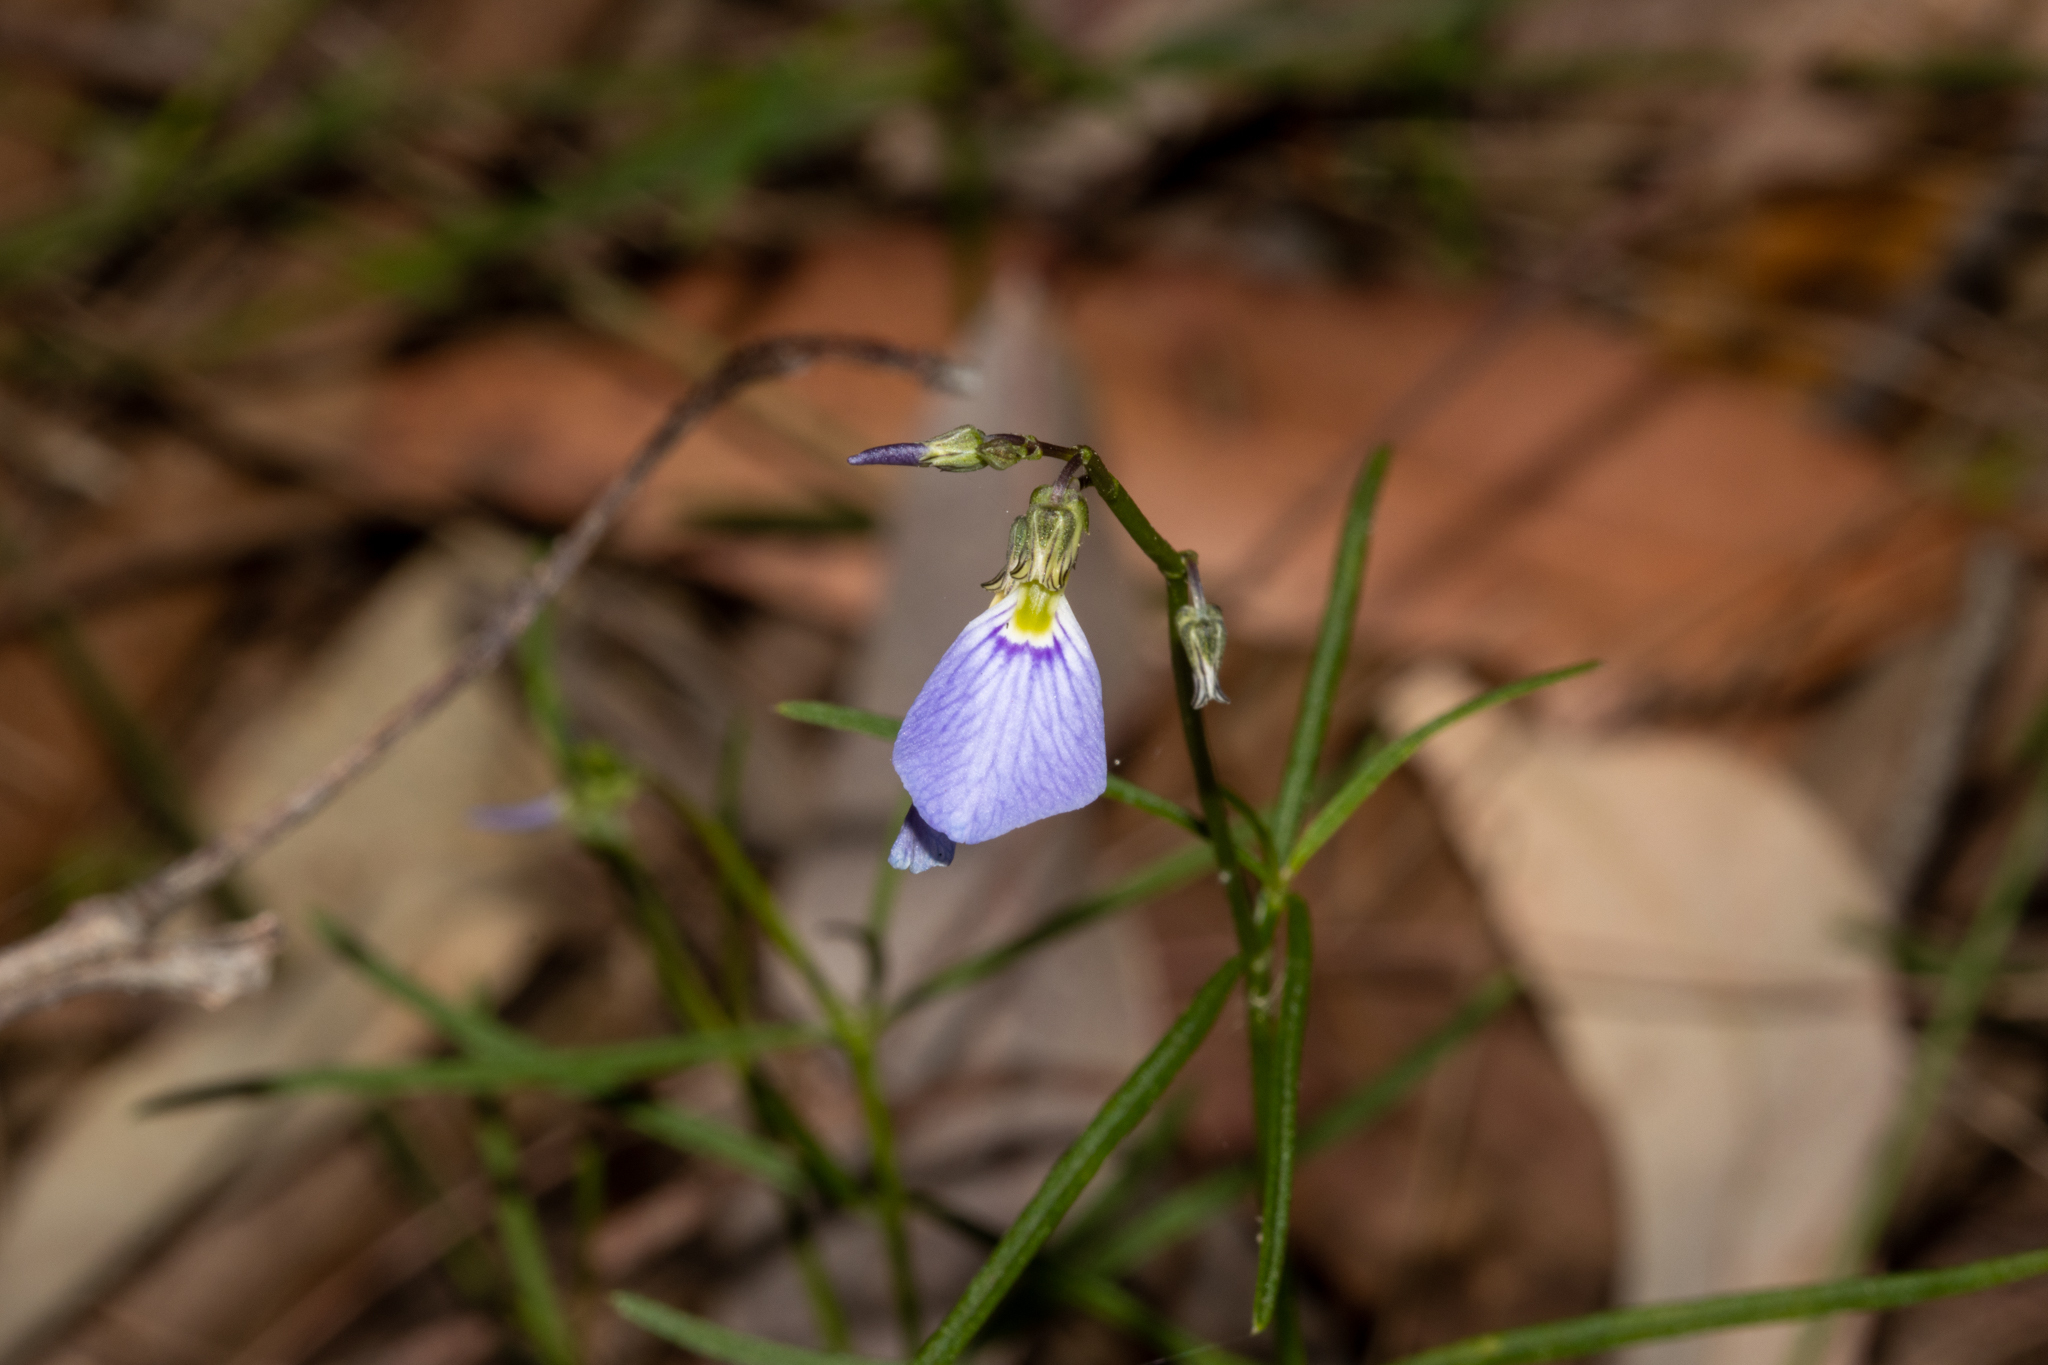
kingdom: Plantae
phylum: Tracheophyta
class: Magnoliopsida
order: Malpighiales
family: Violaceae
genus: Pigea
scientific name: Pigea monopetala
